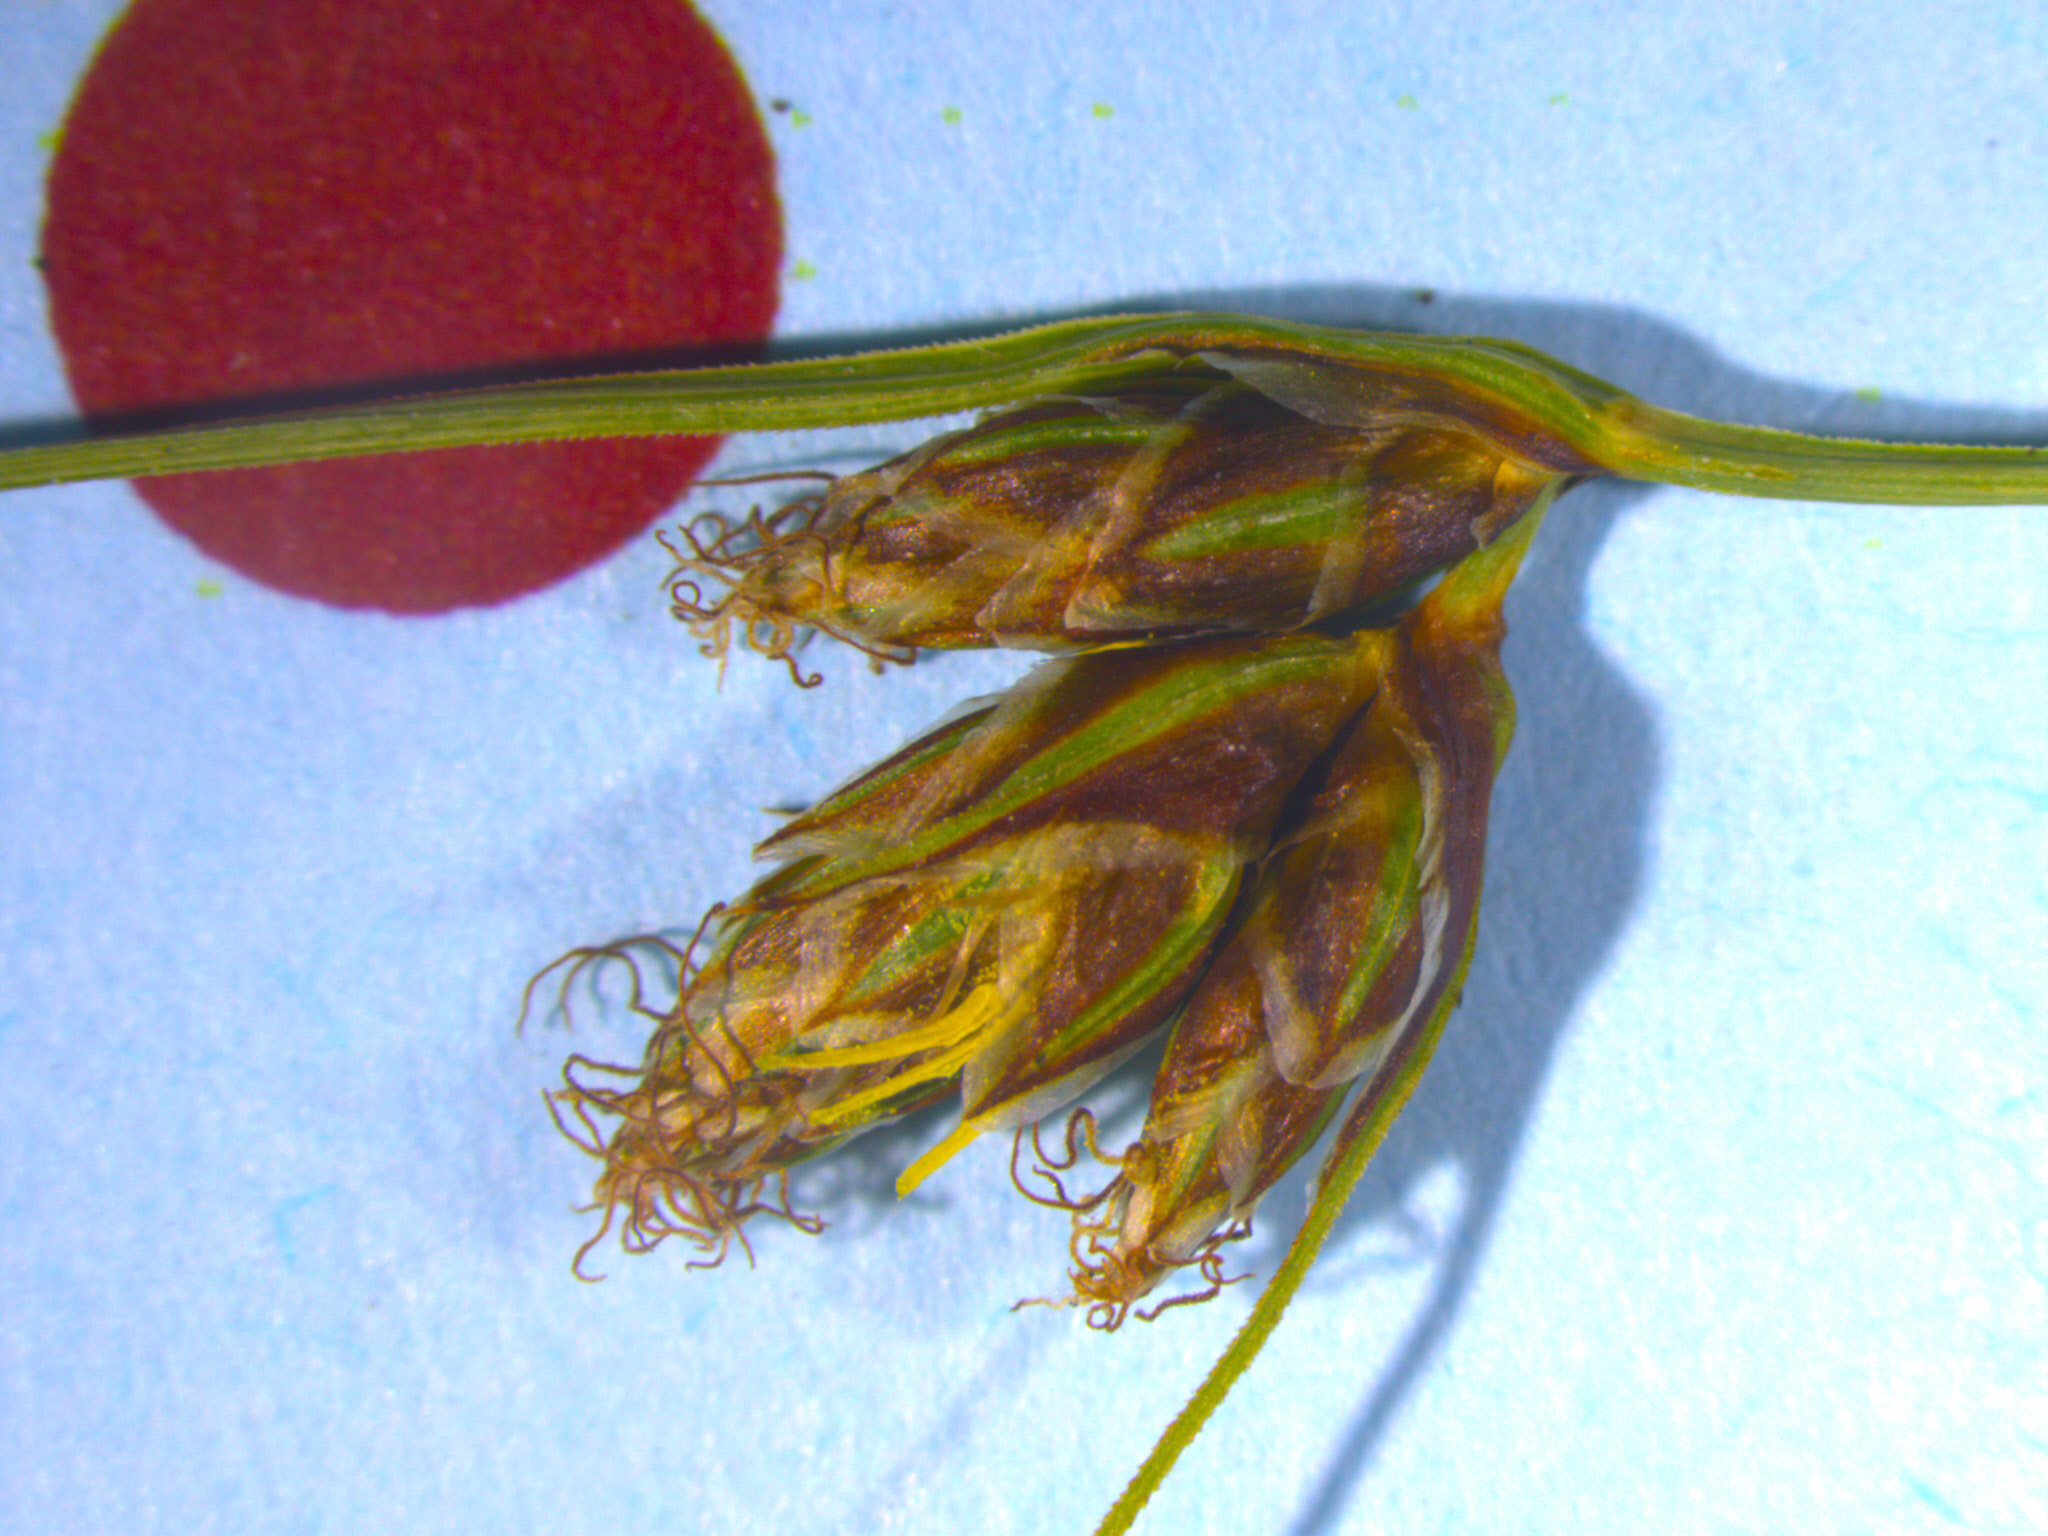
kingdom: Plantae
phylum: Tracheophyta
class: Liliopsida
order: Poales
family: Cyperaceae
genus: Carex
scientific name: Carex colensoi
